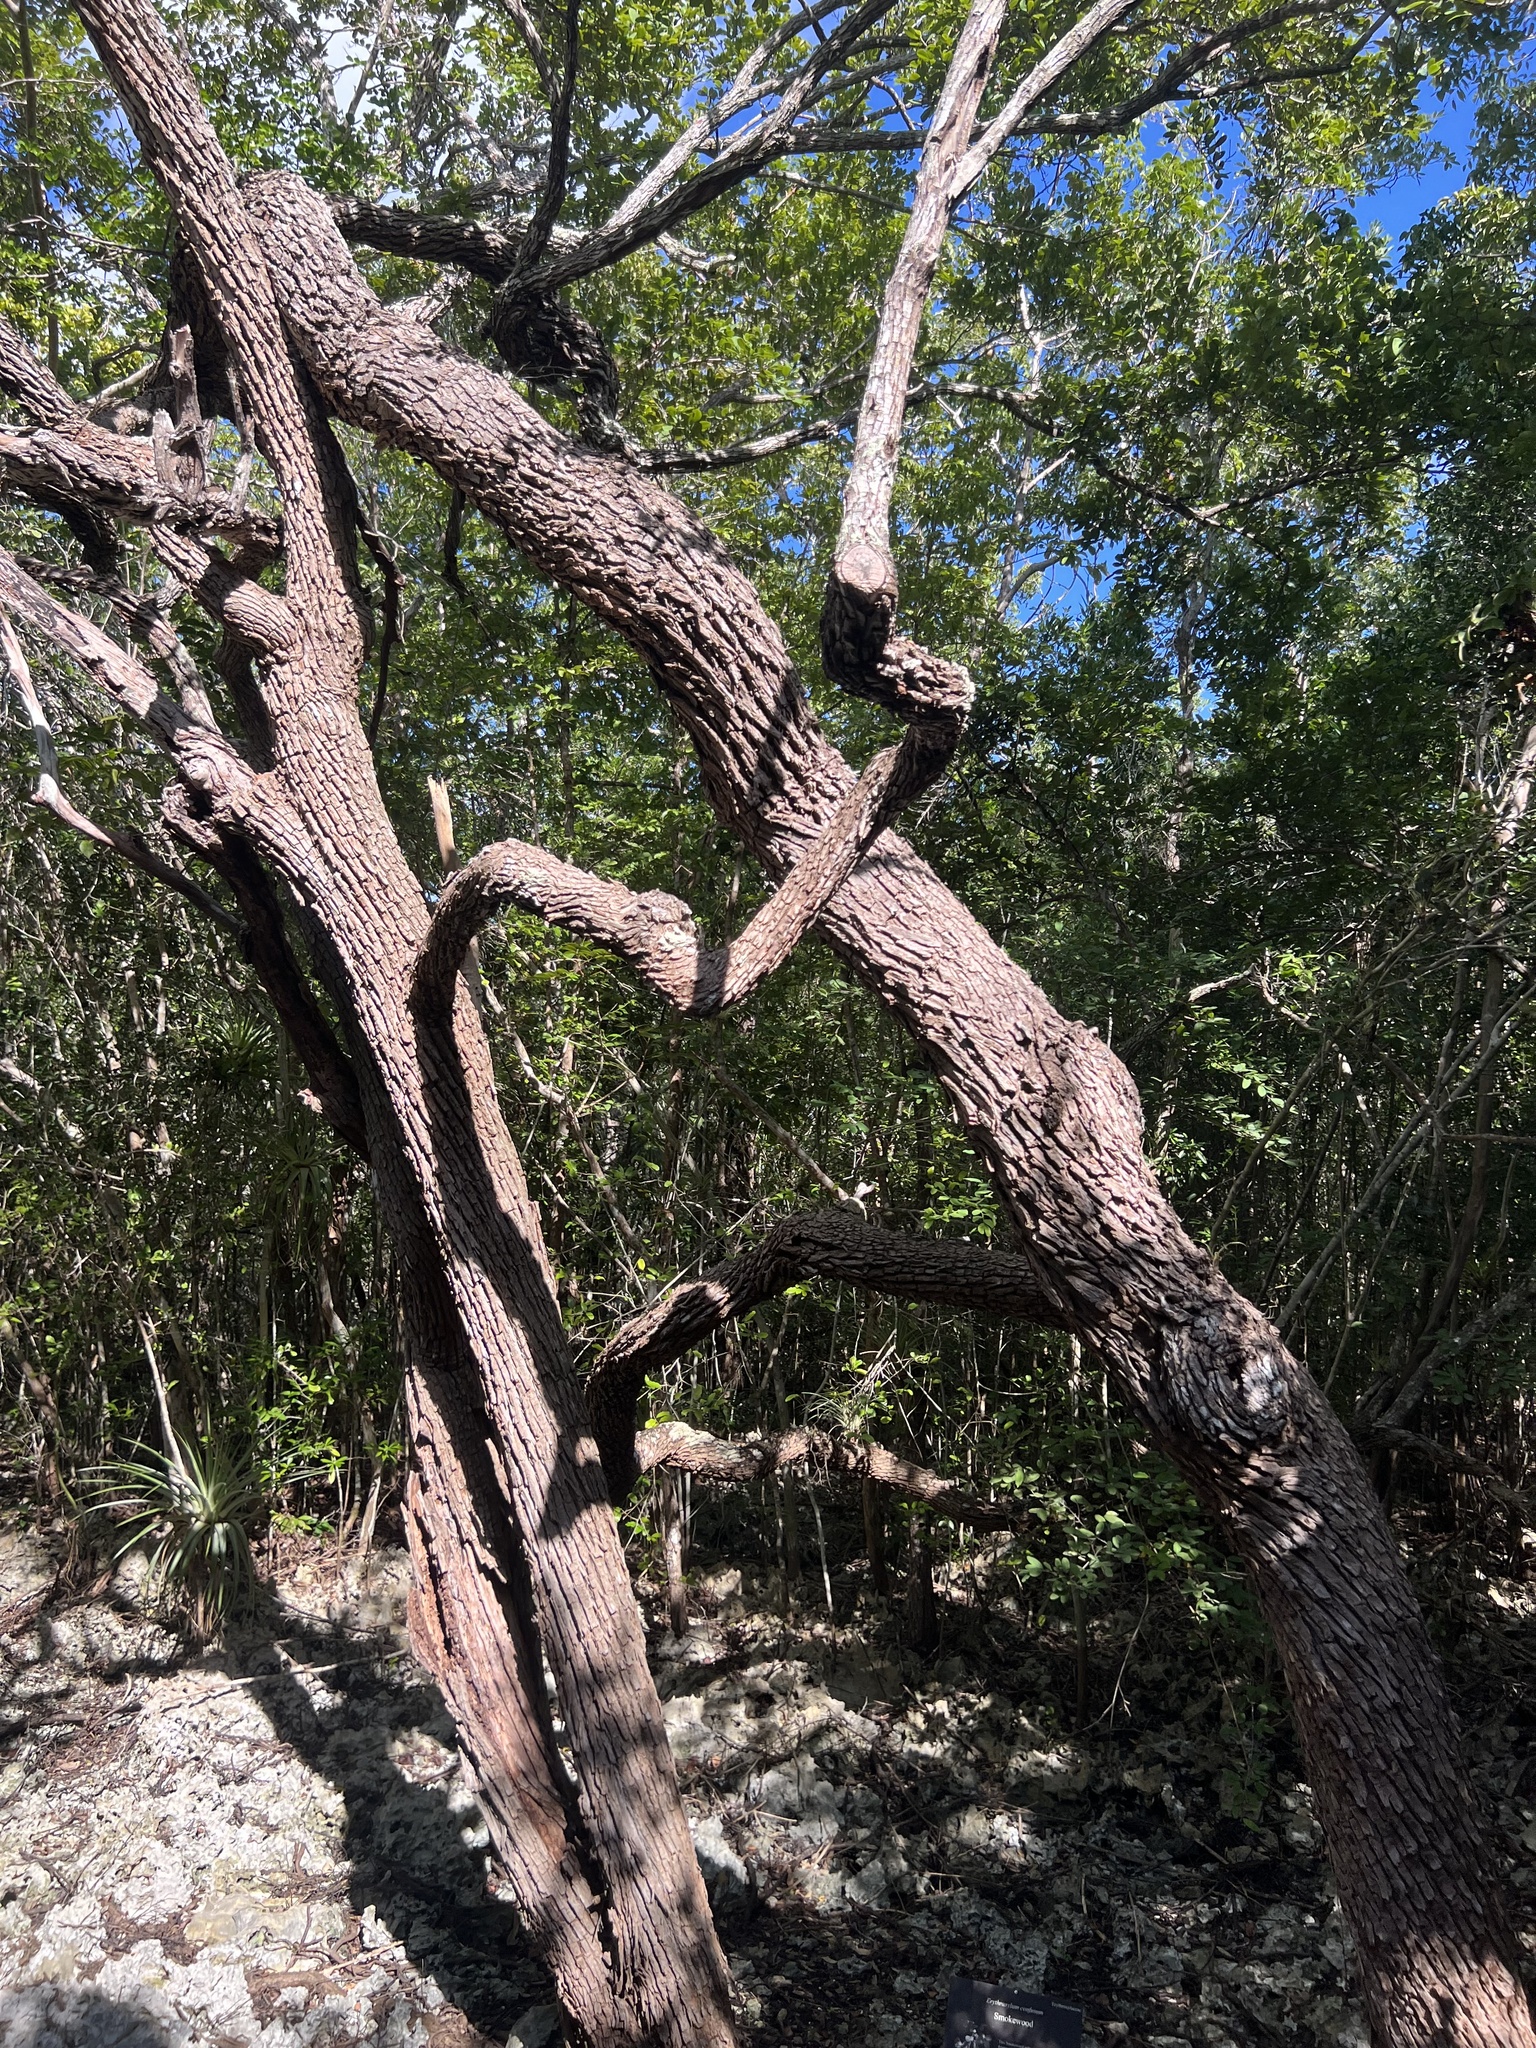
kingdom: Plantae
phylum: Tracheophyta
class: Magnoliopsida
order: Malpighiales
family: Erythroxylaceae
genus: Erythroxylum
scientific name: Erythroxylum confusum
